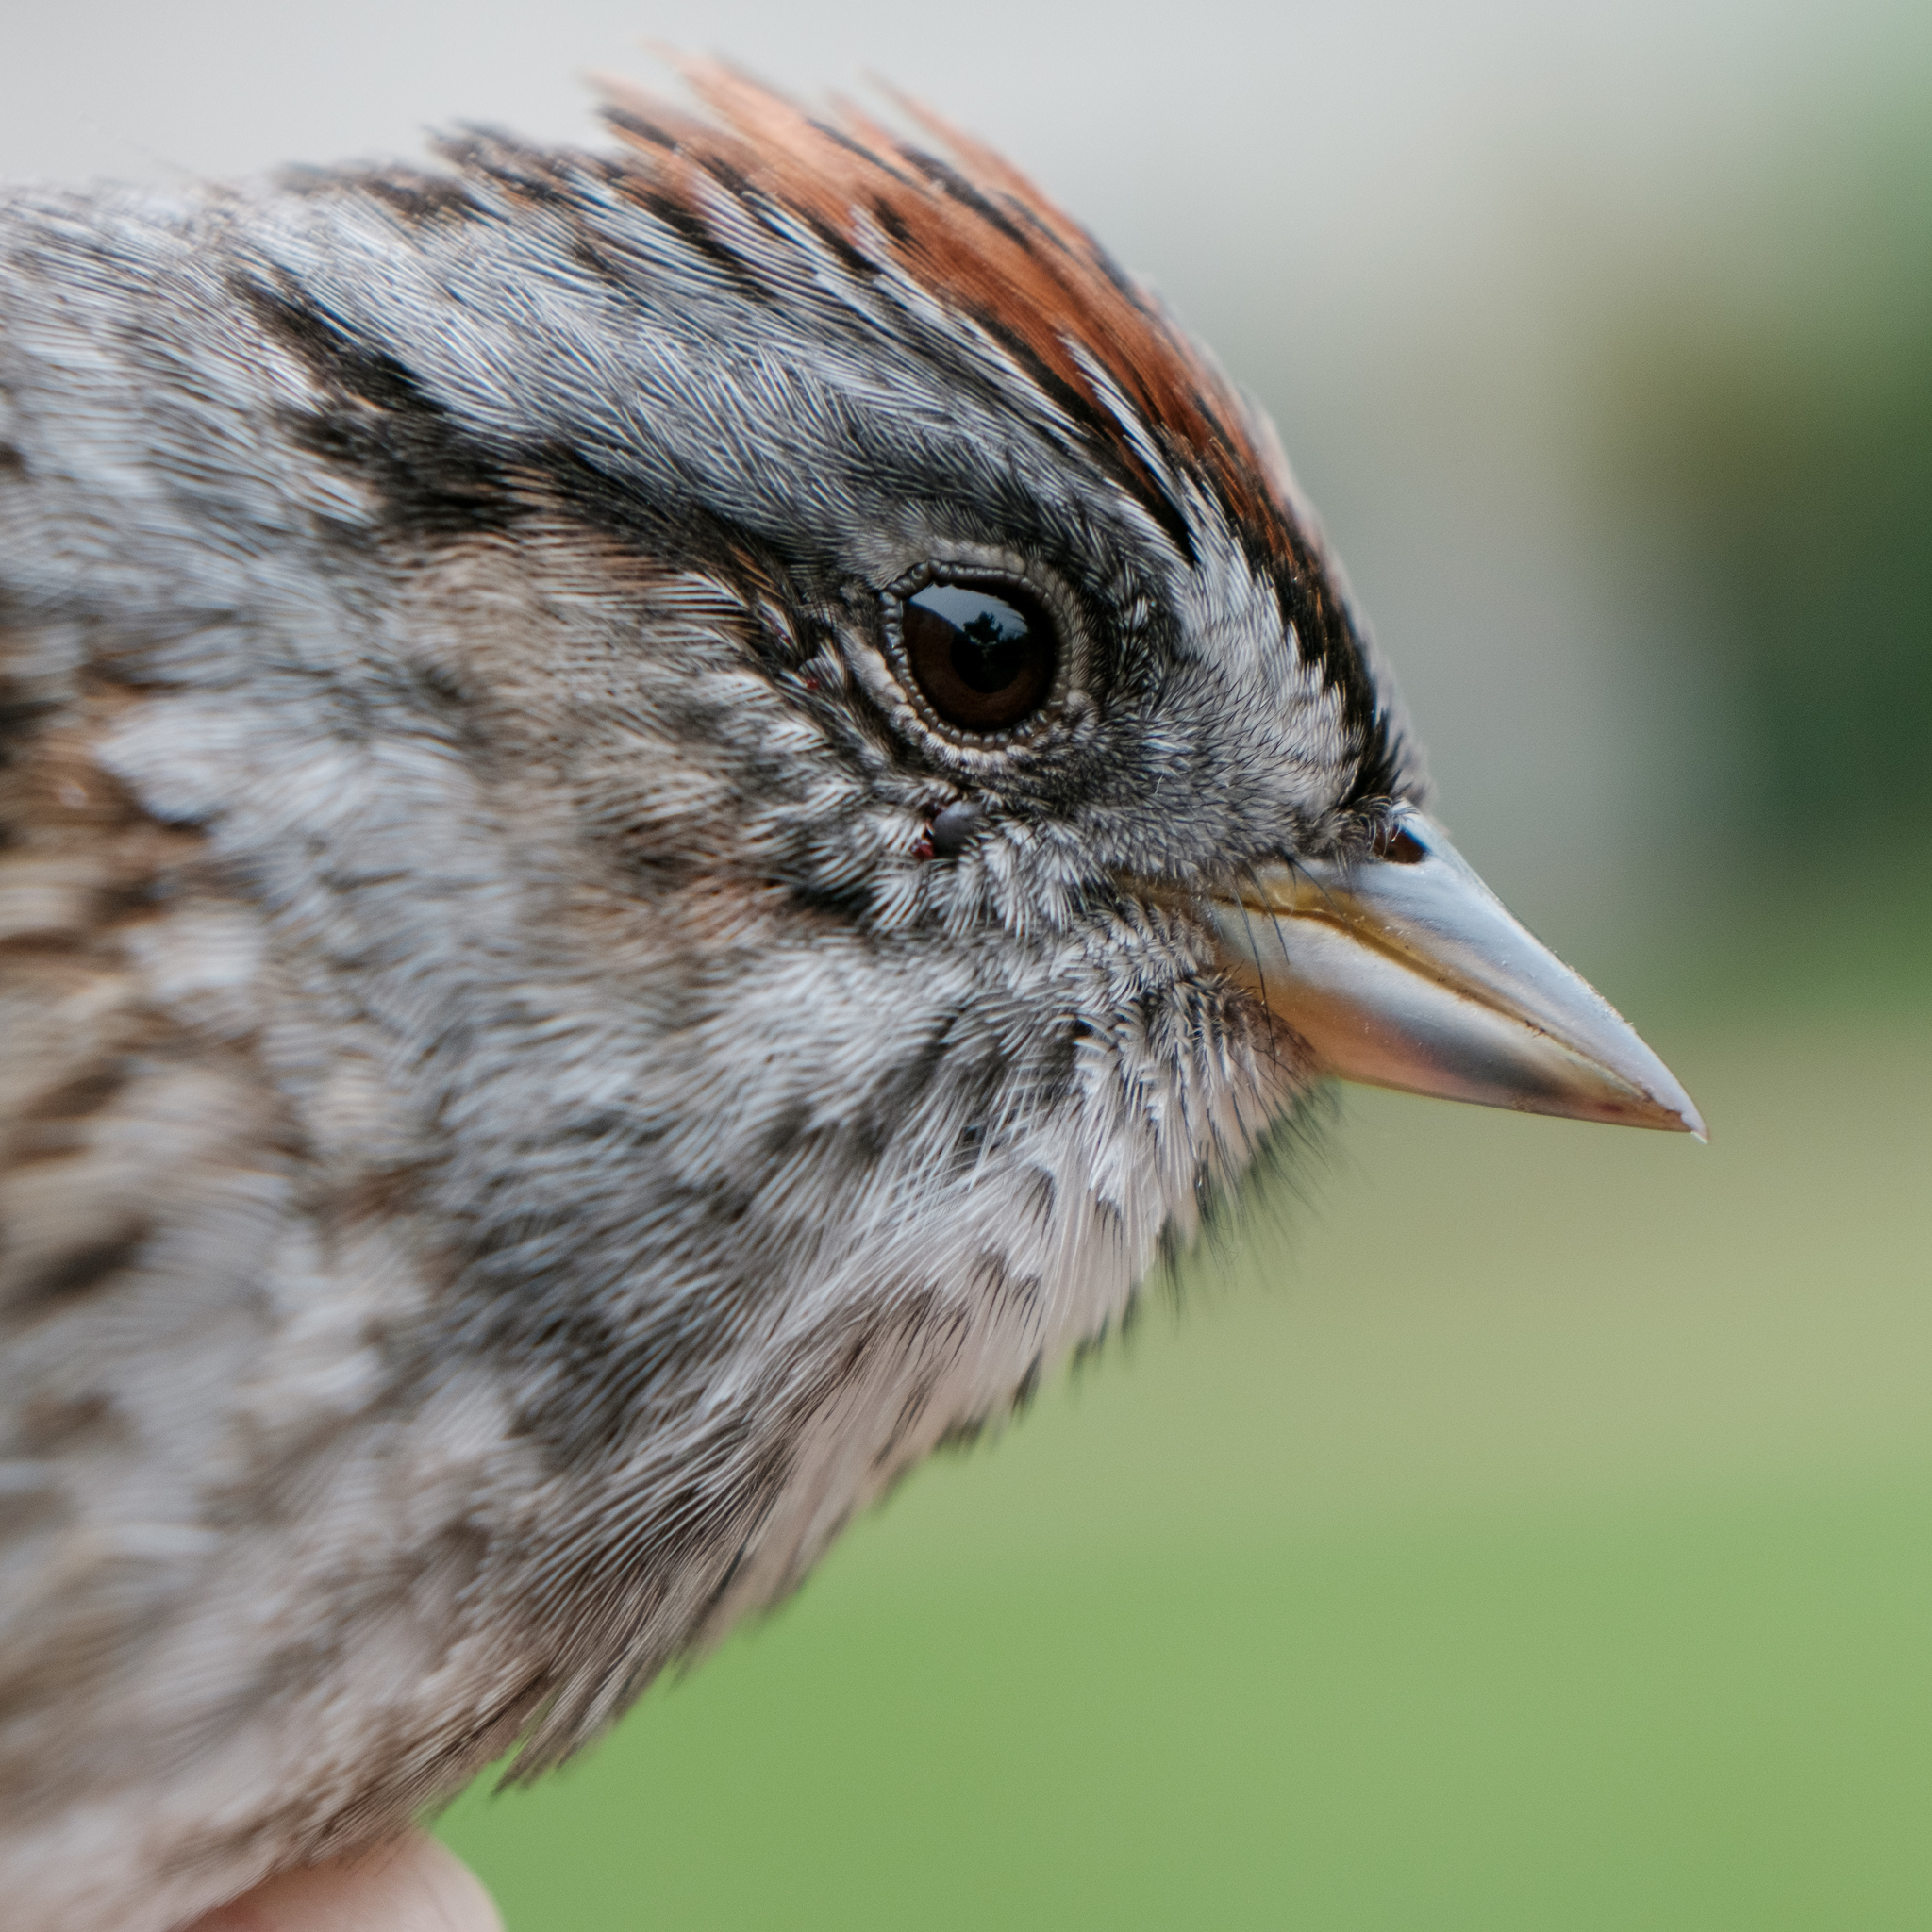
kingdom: Animalia
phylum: Chordata
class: Aves
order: Passeriformes
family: Passerellidae
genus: Melospiza
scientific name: Melospiza georgiana
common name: Swamp sparrow
